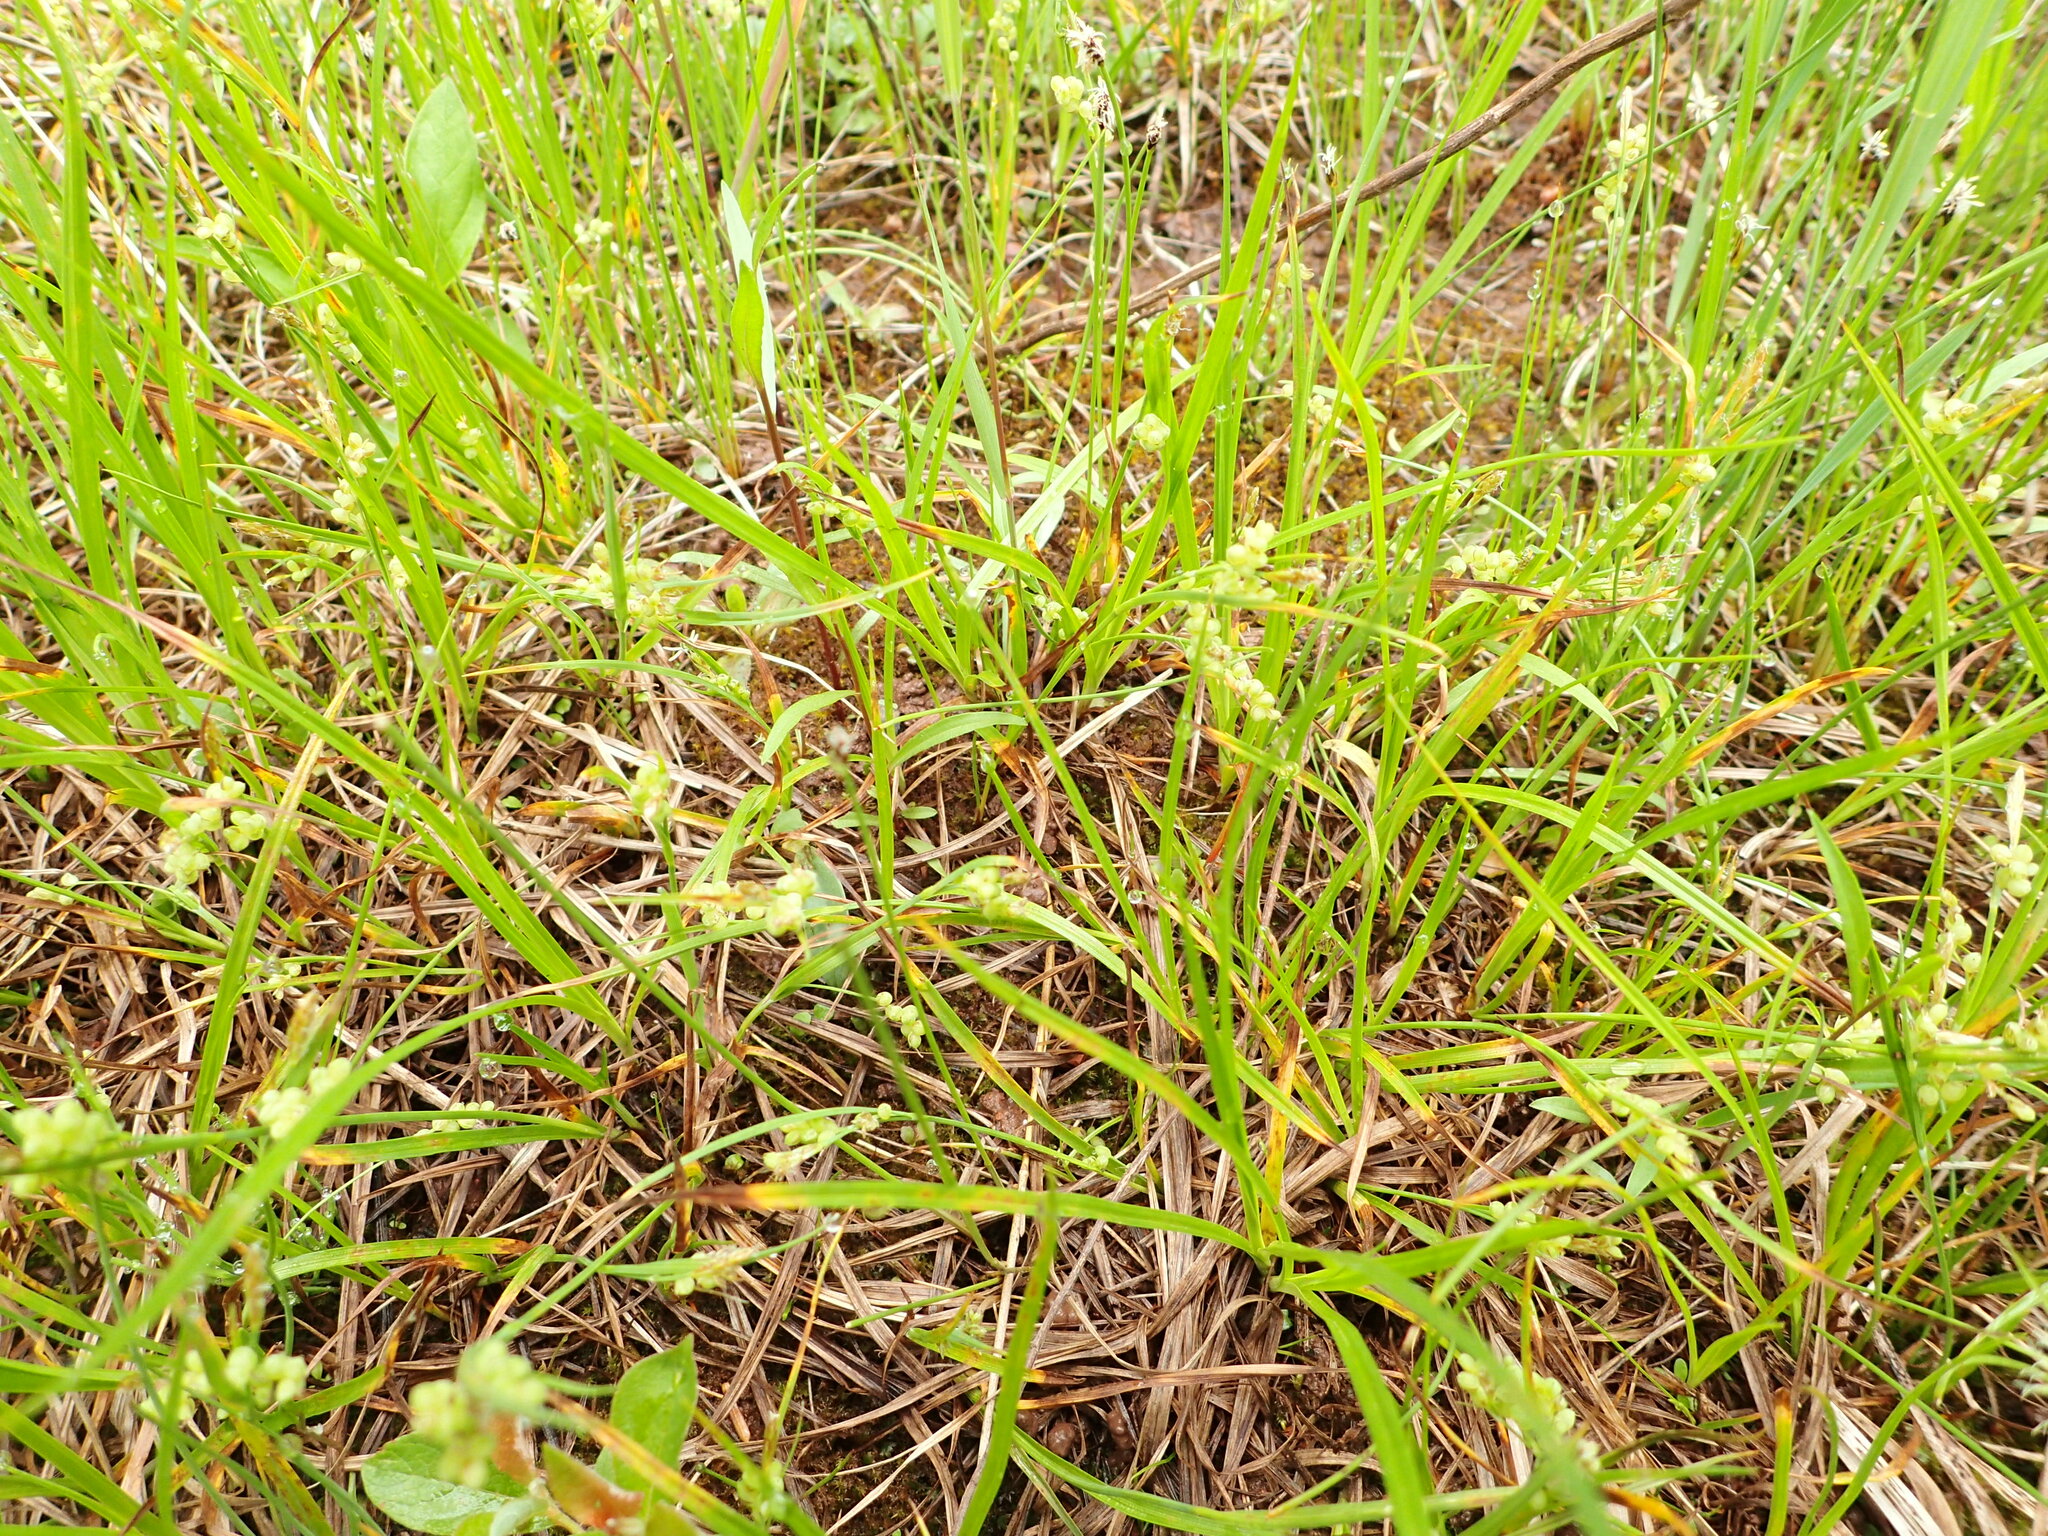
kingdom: Plantae
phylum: Tracheophyta
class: Liliopsida
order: Poales
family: Cyperaceae
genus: Carex
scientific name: Carex aurea
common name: Golden sedge
